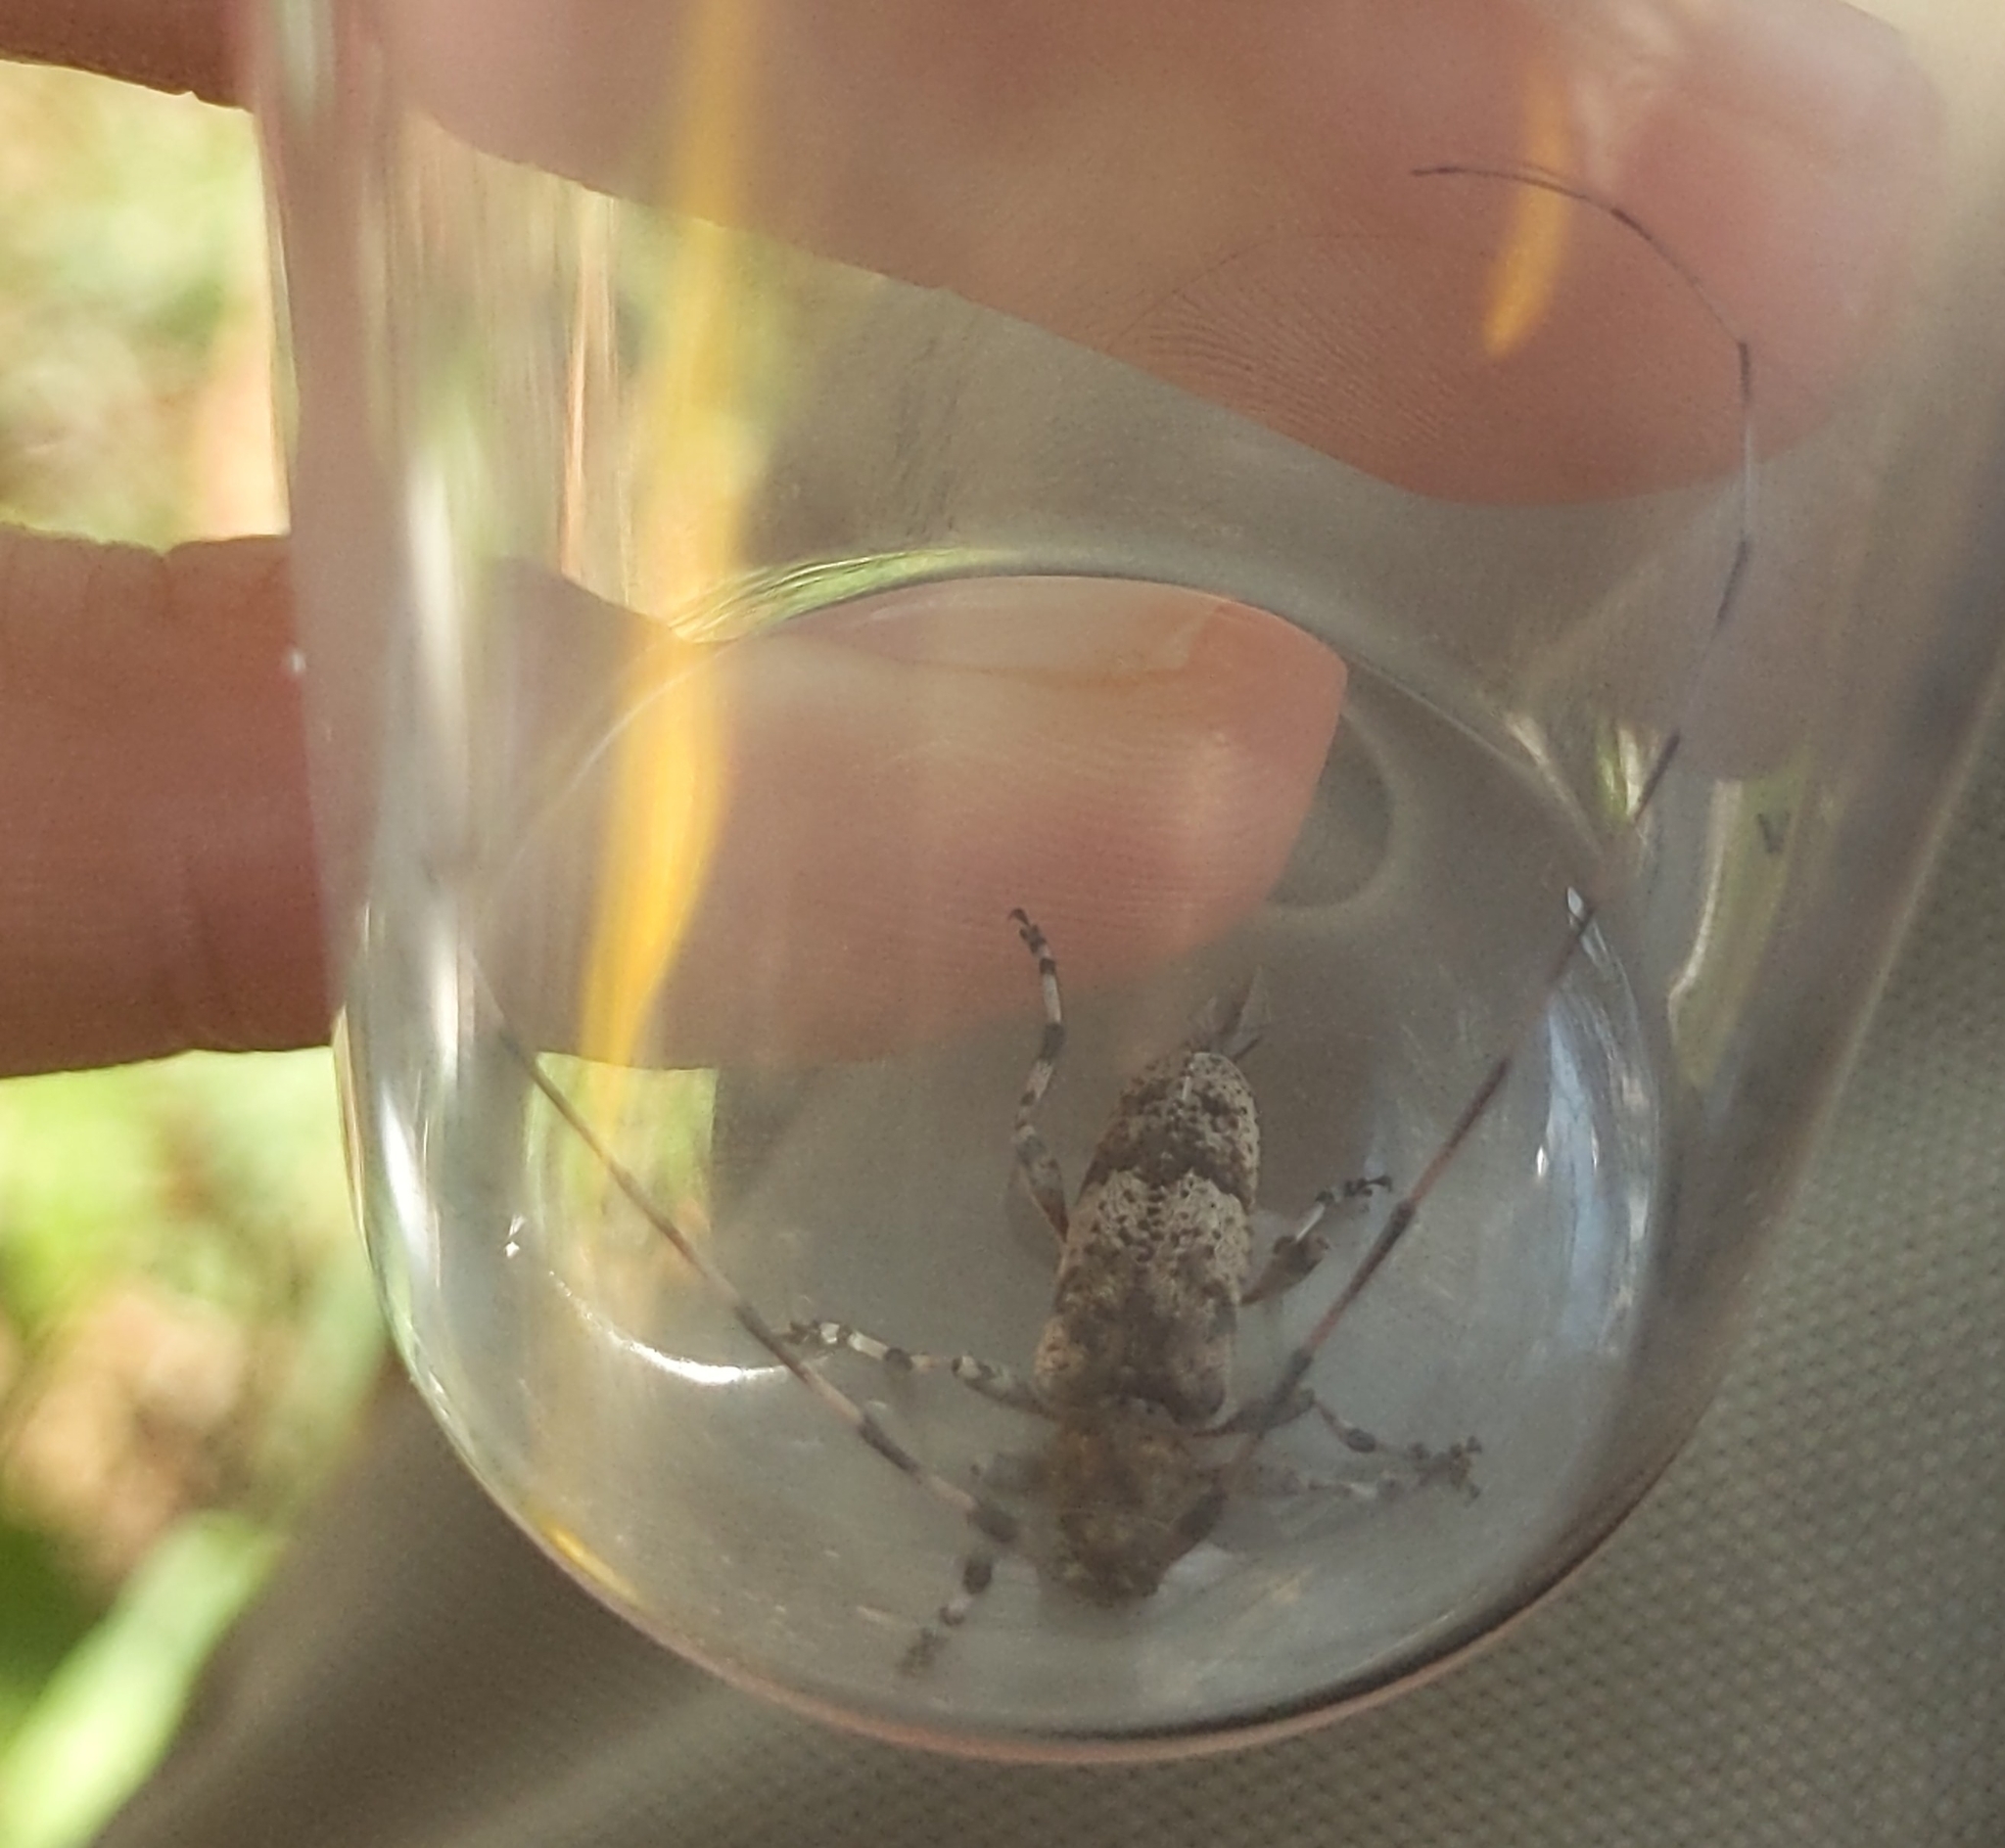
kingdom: Animalia
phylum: Arthropoda
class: Insecta
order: Coleoptera
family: Cerambycidae
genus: Acanthocinus
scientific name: Acanthocinus griseus
